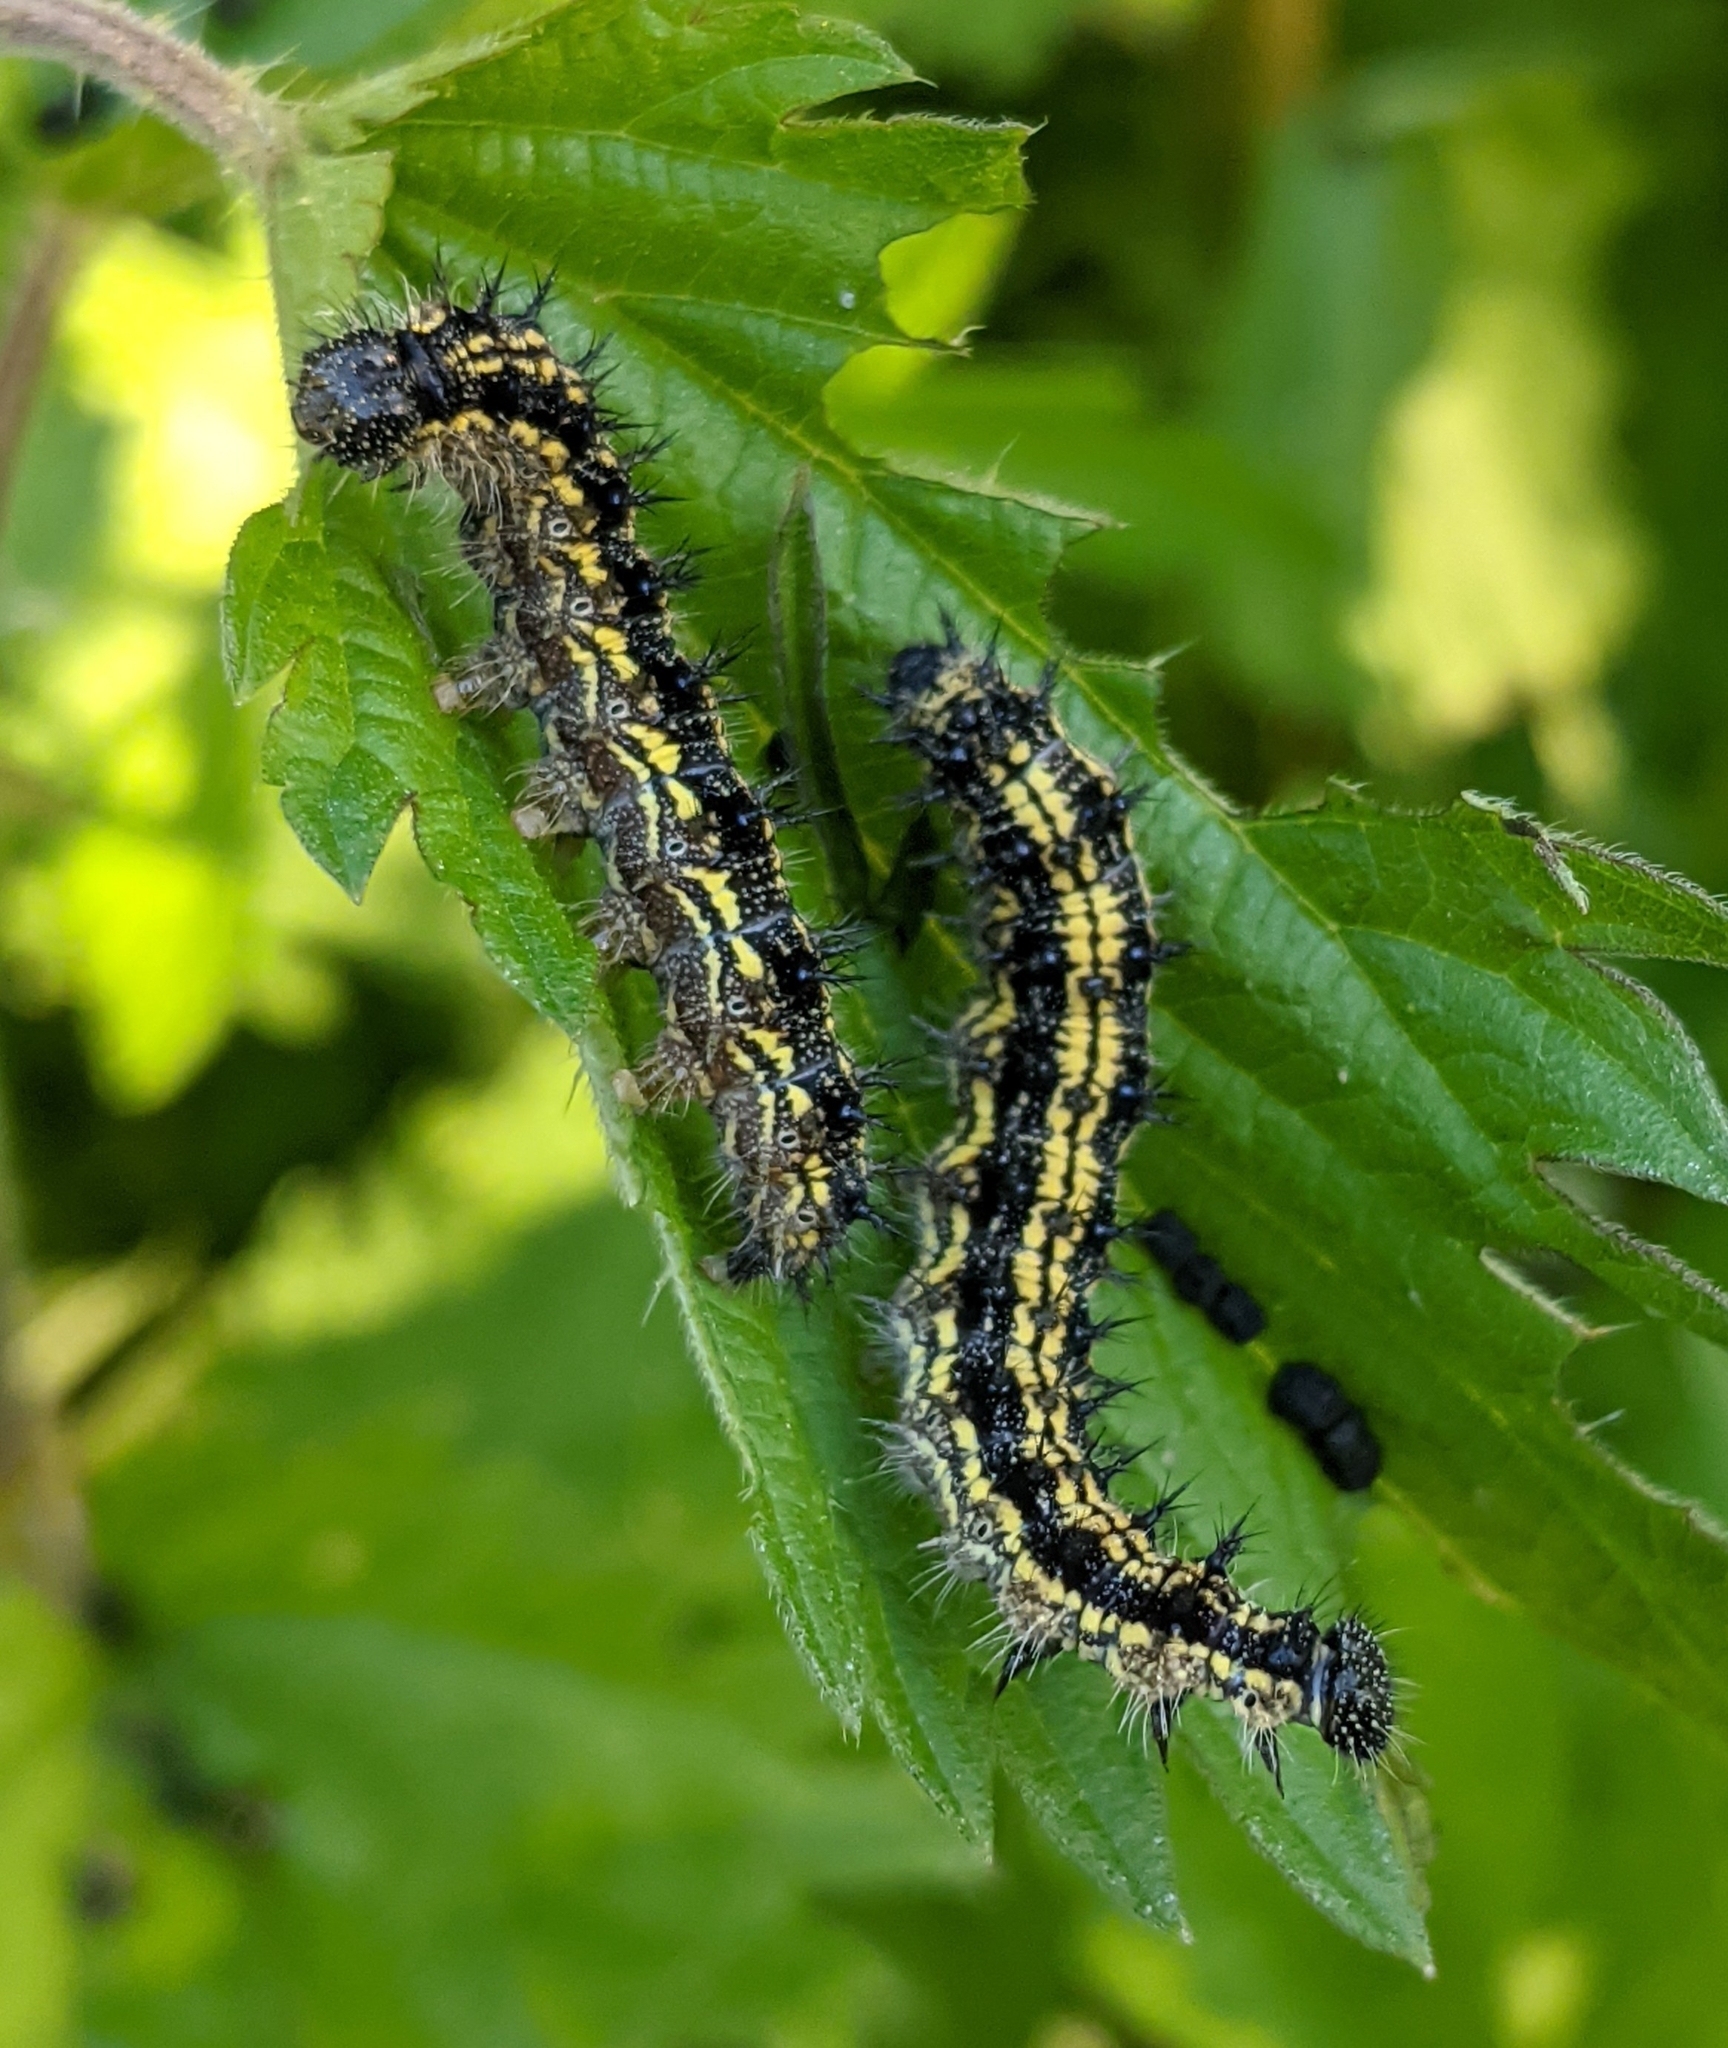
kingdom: Animalia
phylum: Arthropoda
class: Insecta
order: Lepidoptera
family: Nymphalidae
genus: Aglais
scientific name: Aglais urticae
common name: Small tortoiseshell
